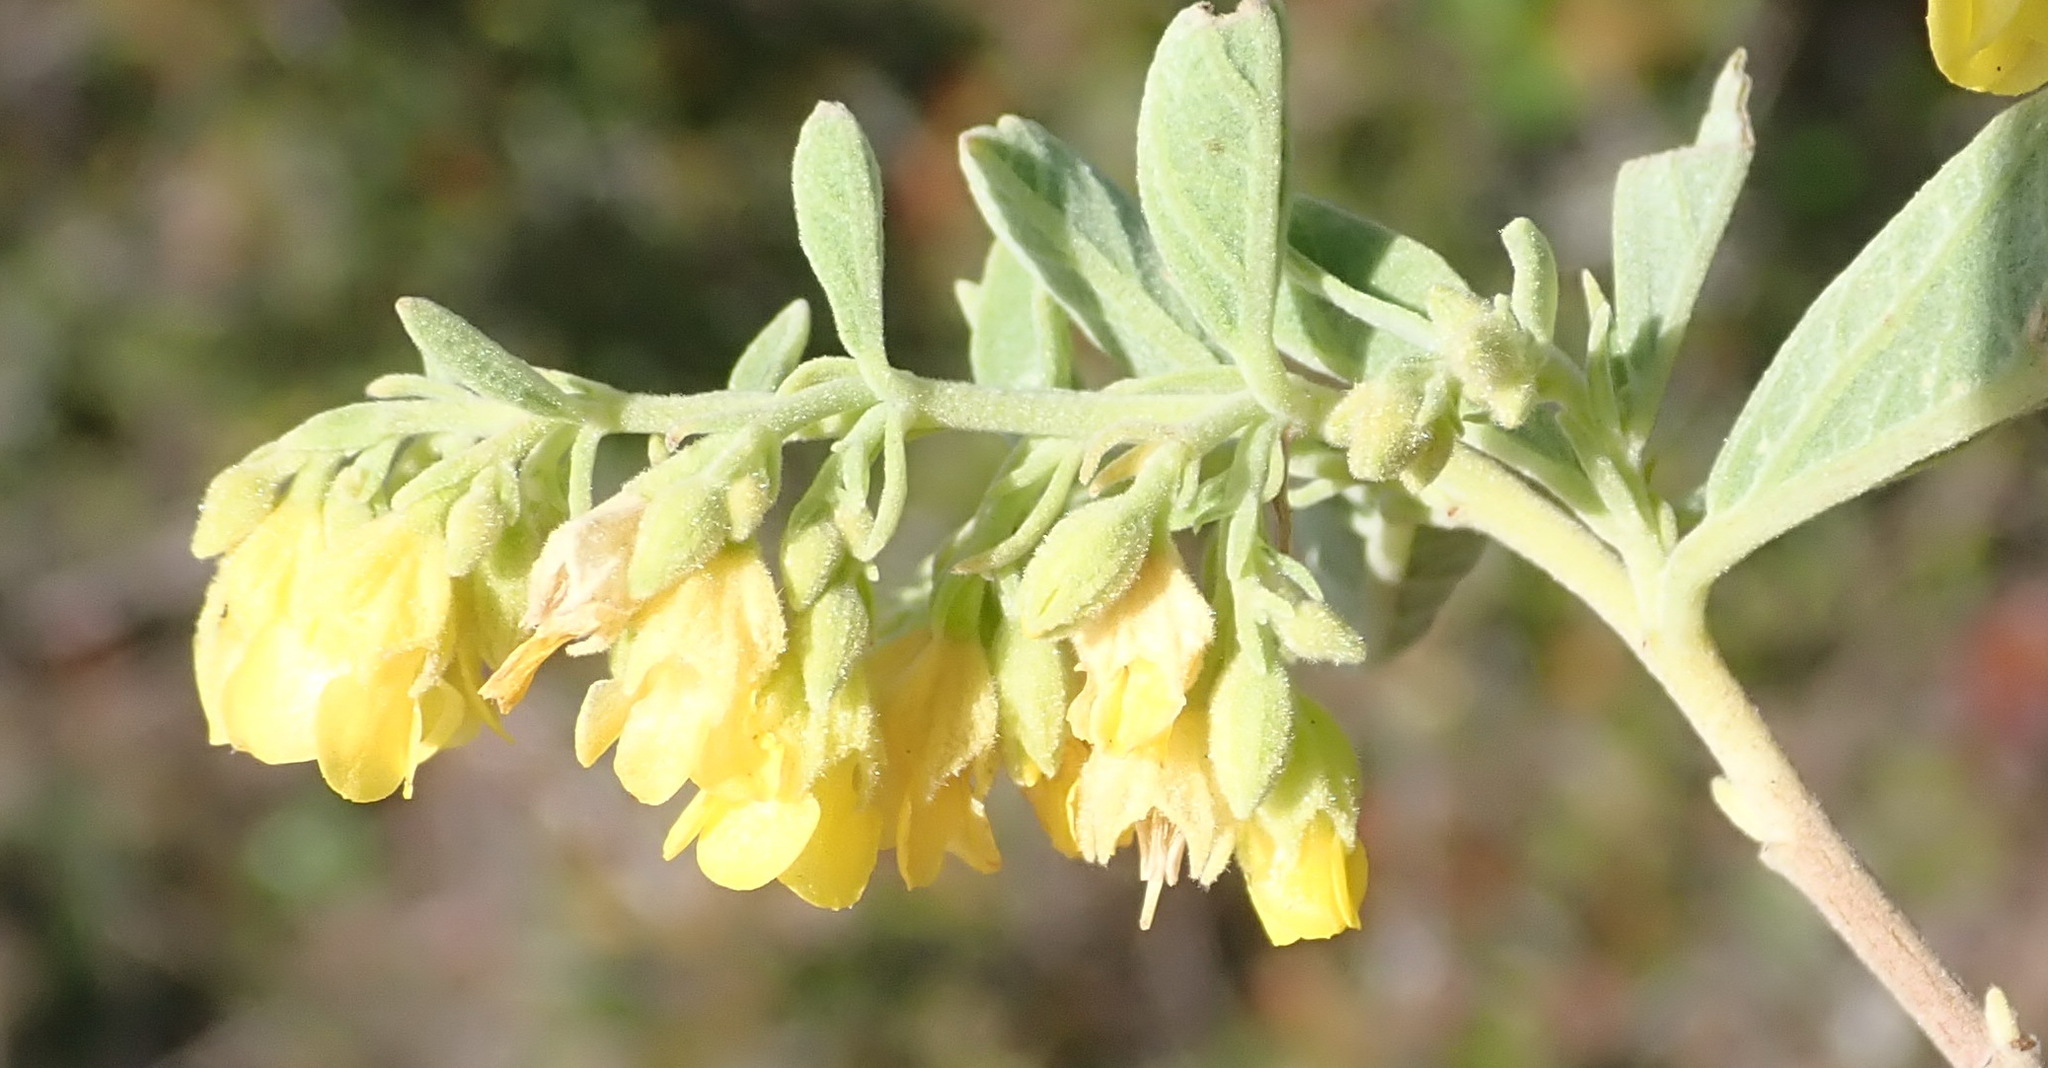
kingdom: Plantae
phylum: Tracheophyta
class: Magnoliopsida
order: Malvales
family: Malvaceae
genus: Hermannia
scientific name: Hermannia holosericea
